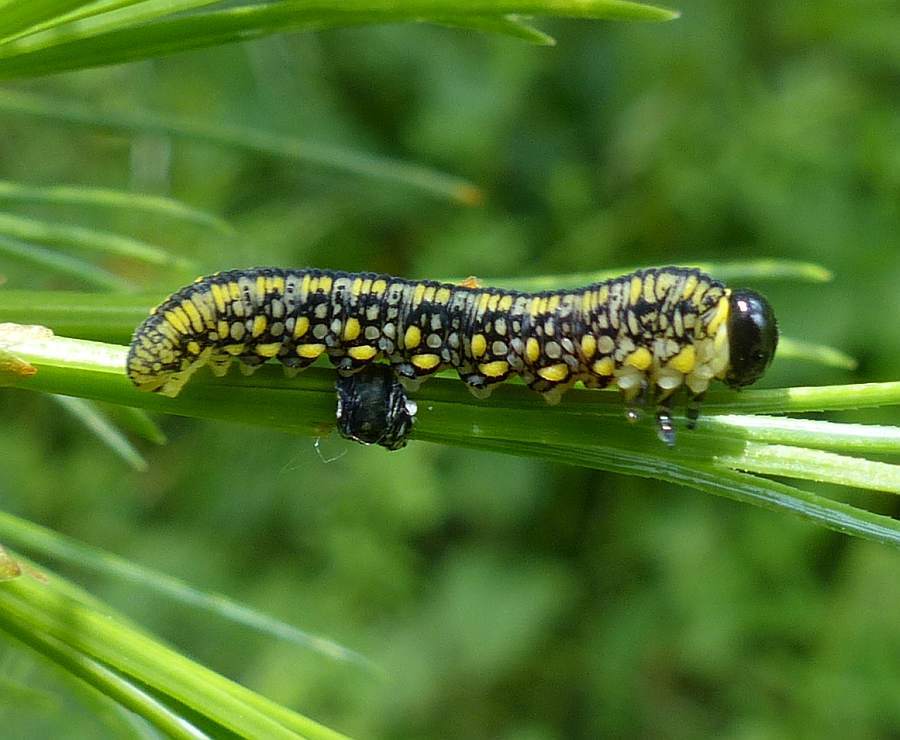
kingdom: Animalia
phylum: Arthropoda
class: Insecta
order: Hymenoptera
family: Diprionidae
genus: Diprion
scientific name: Diprion similis
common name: Pine sawfly
